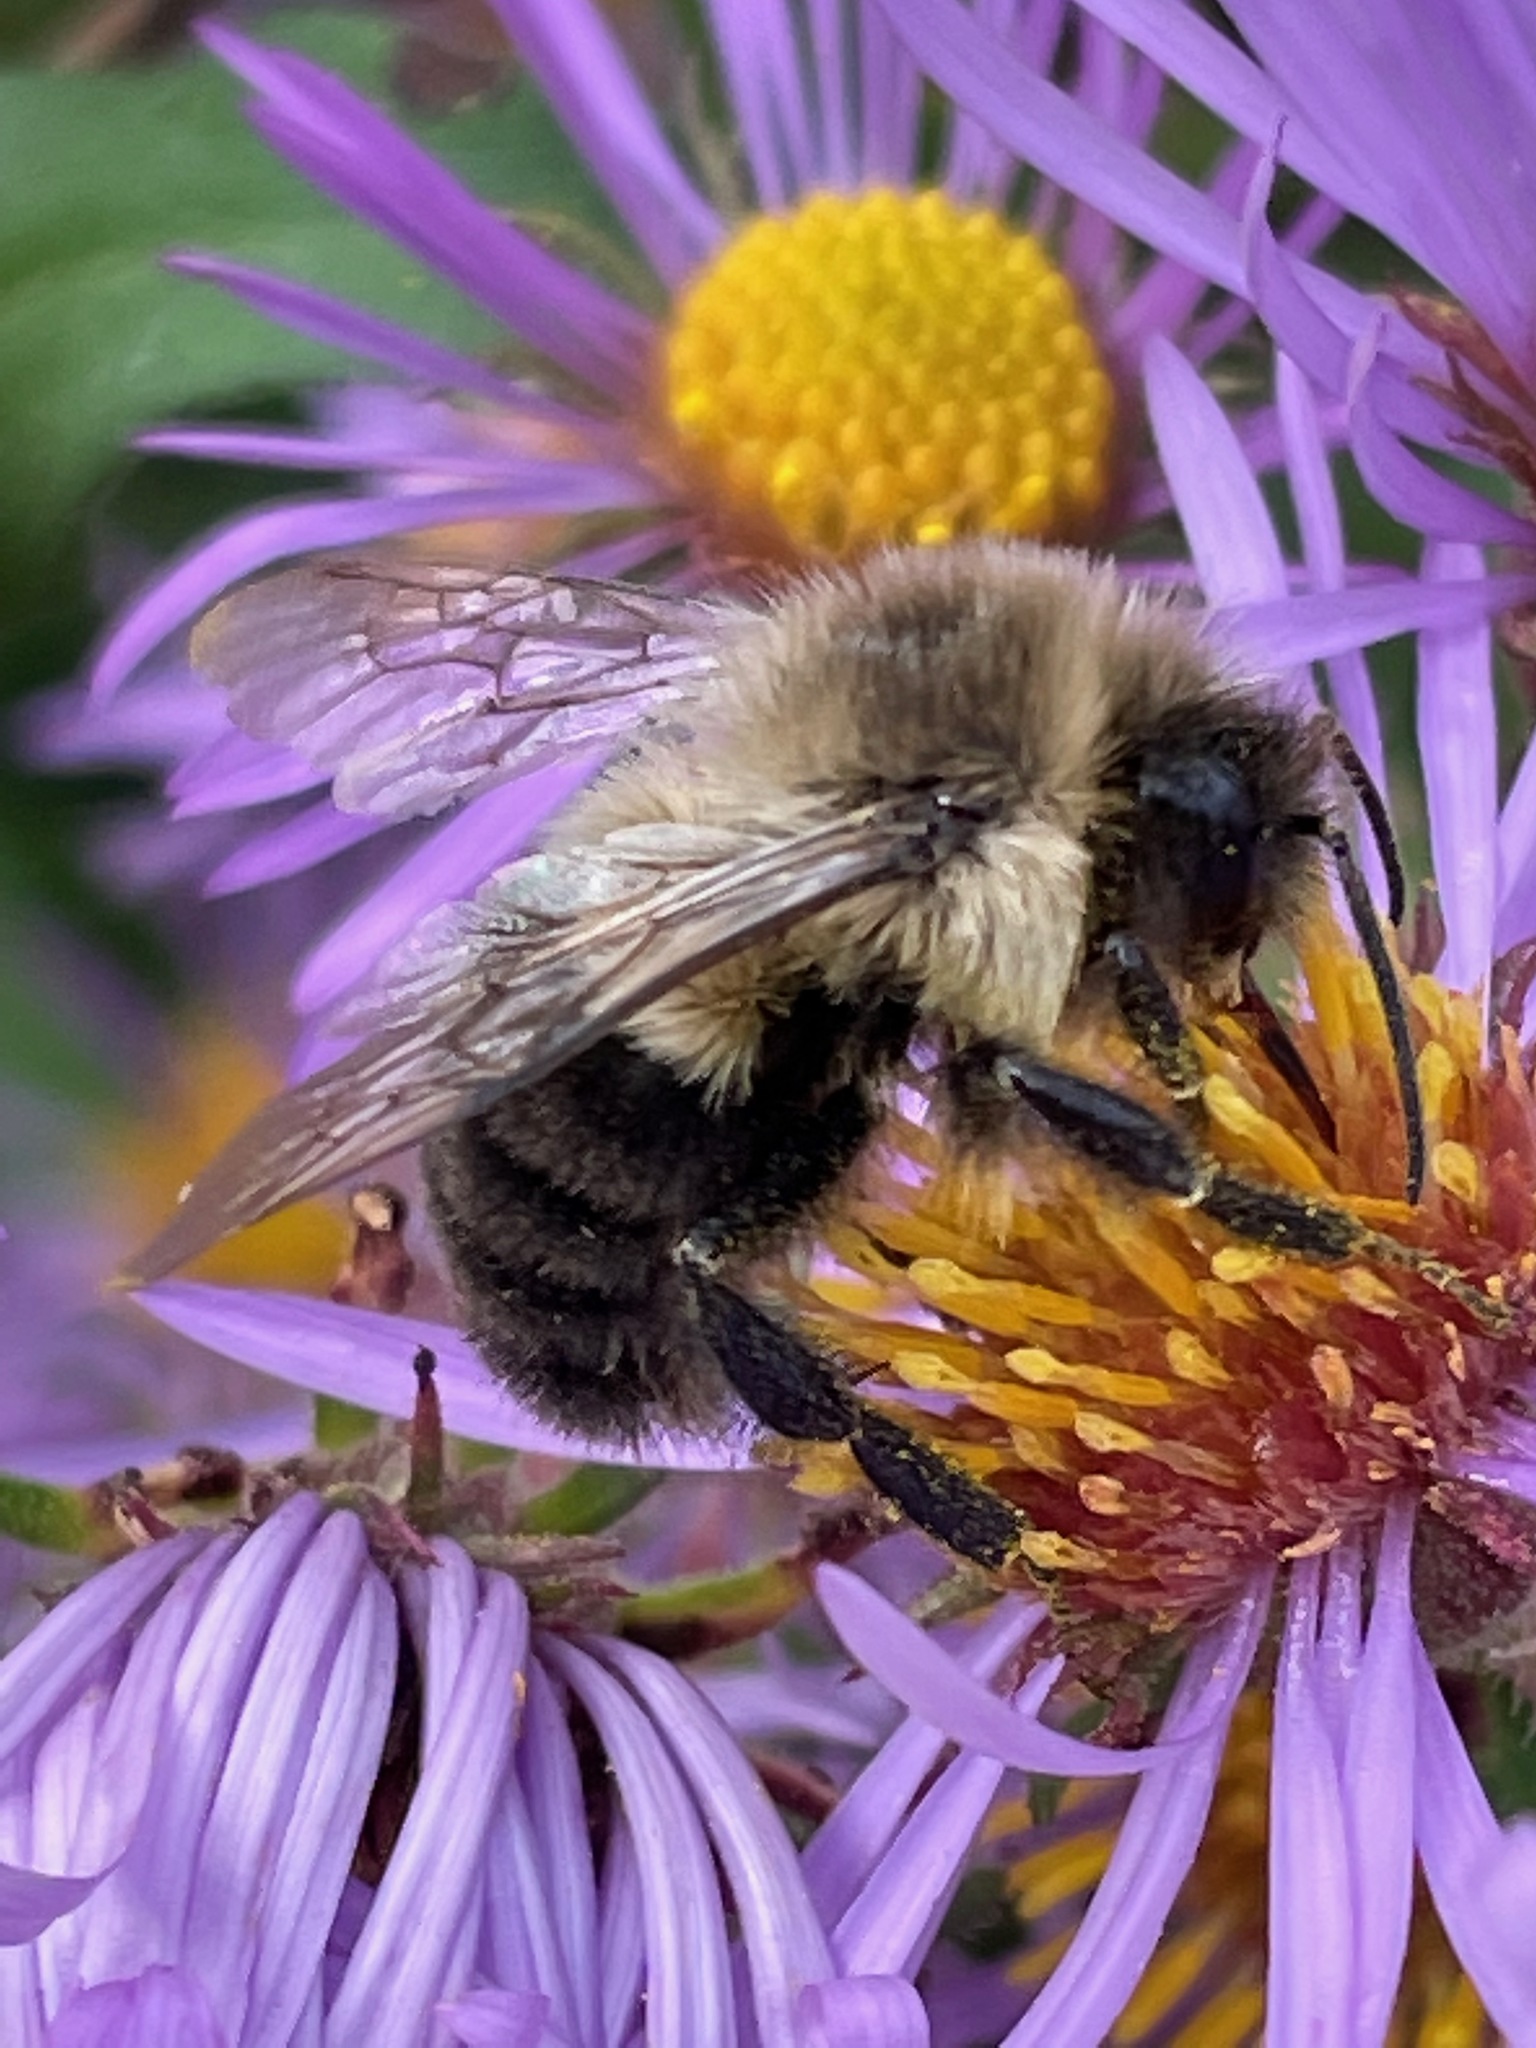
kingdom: Animalia
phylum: Arthropoda
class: Insecta
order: Hymenoptera
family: Apidae
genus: Bombus
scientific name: Bombus impatiens
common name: Common eastern bumble bee
